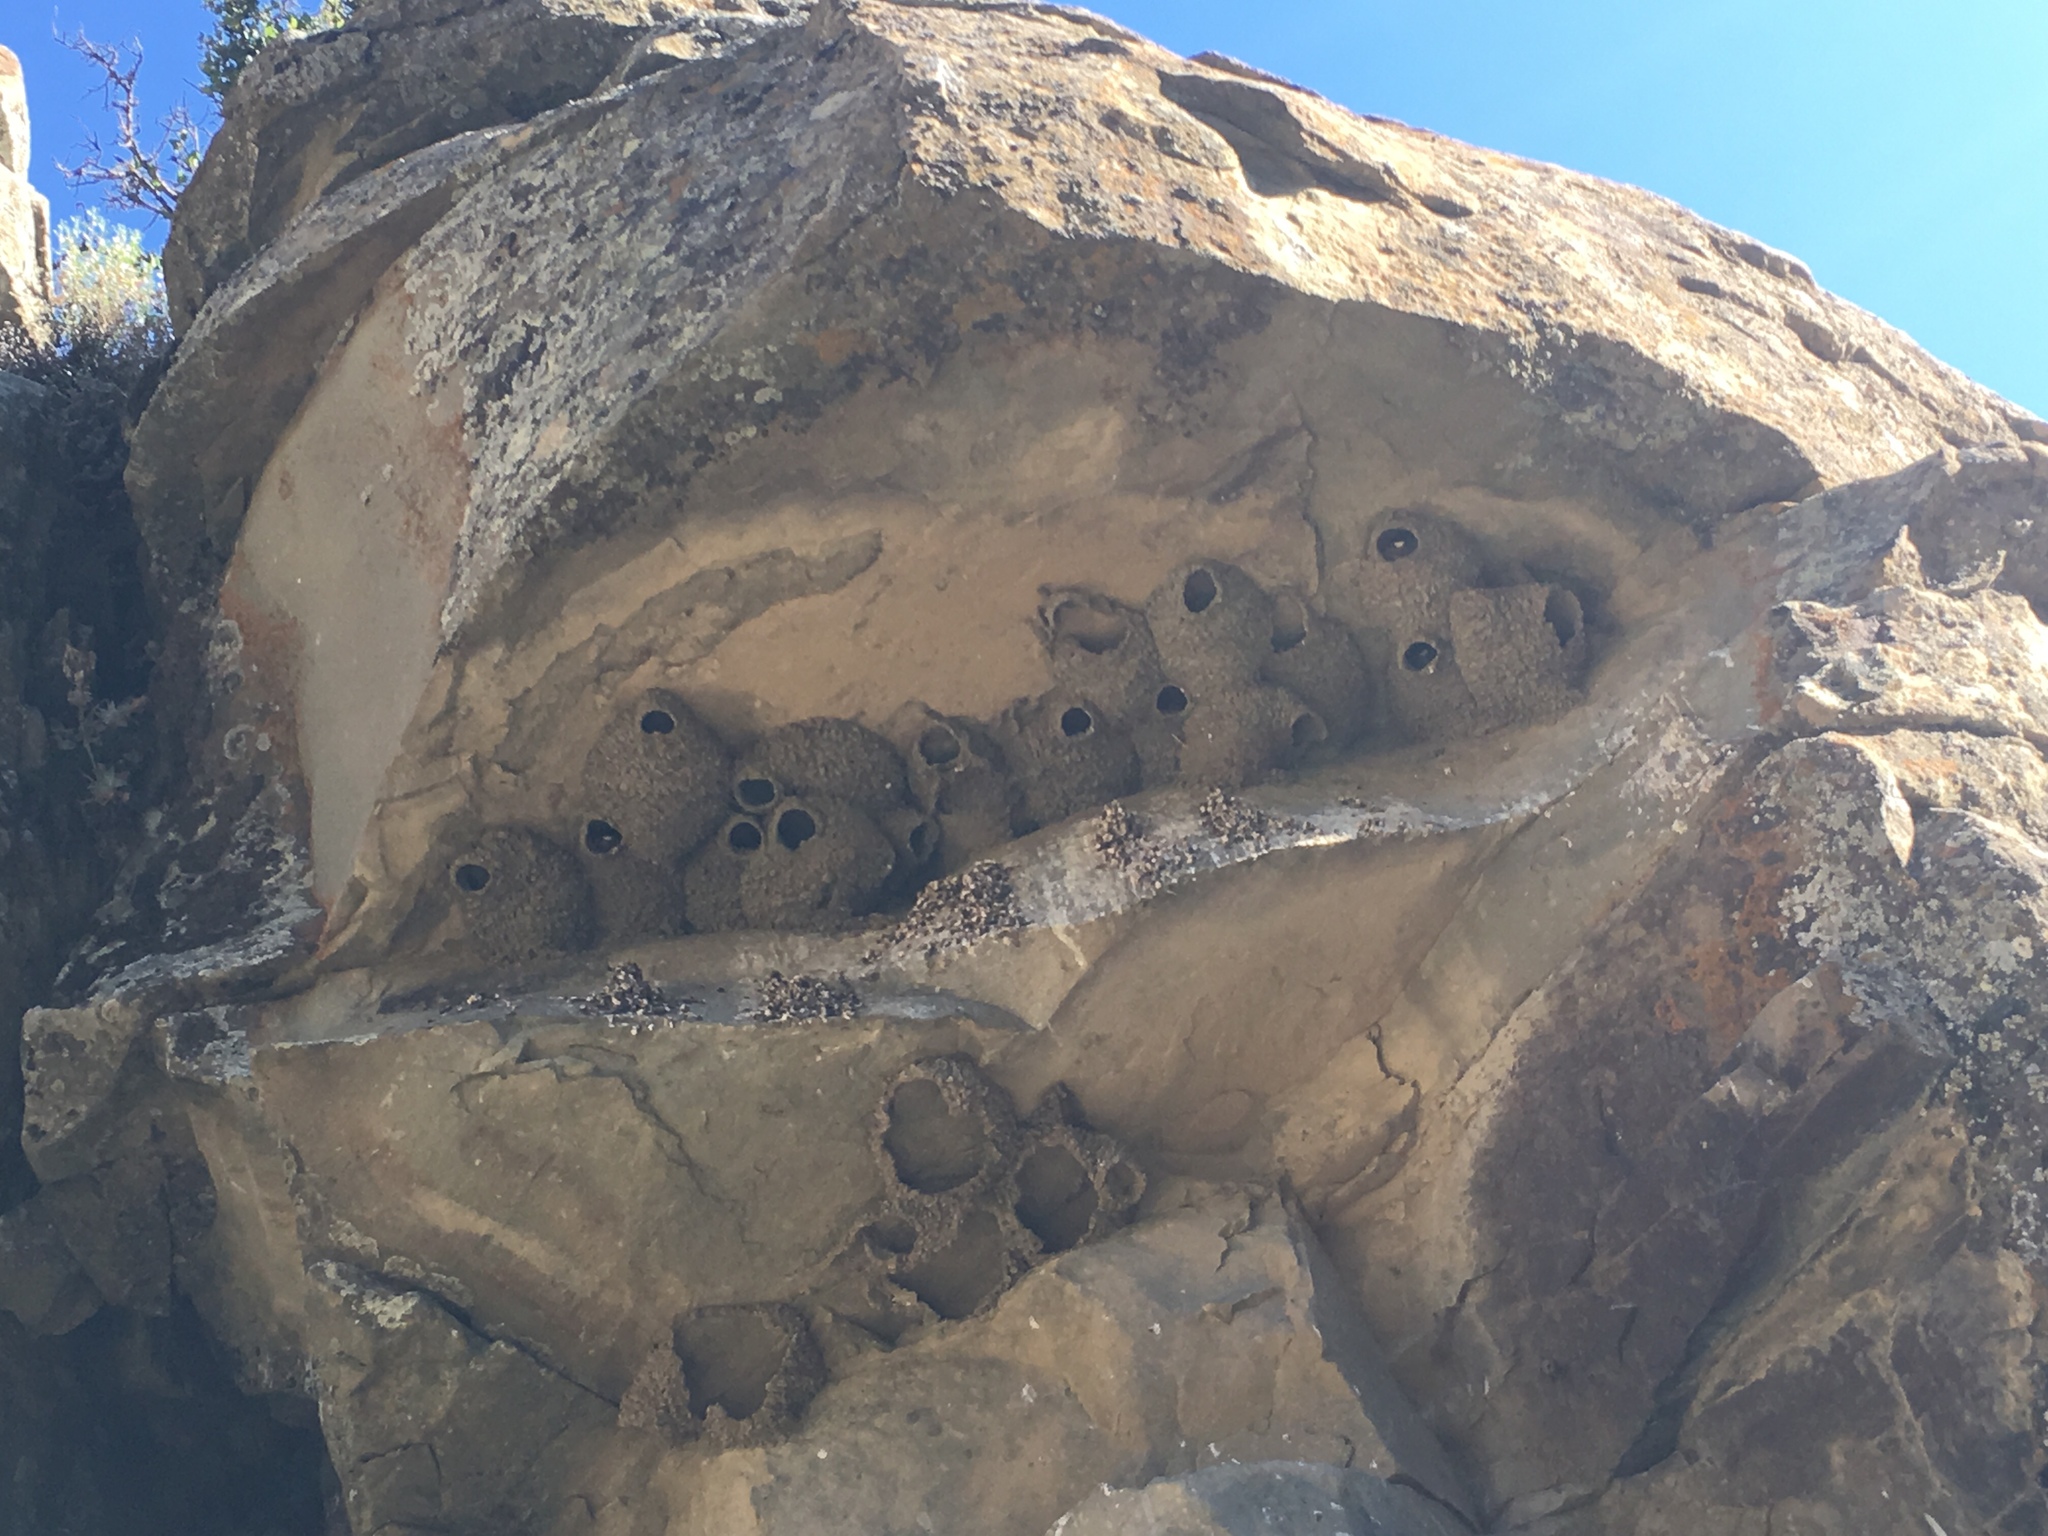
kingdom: Animalia
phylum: Chordata
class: Aves
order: Passeriformes
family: Hirundinidae
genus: Petrochelidon
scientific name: Petrochelidon pyrrhonota
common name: American cliff swallow
